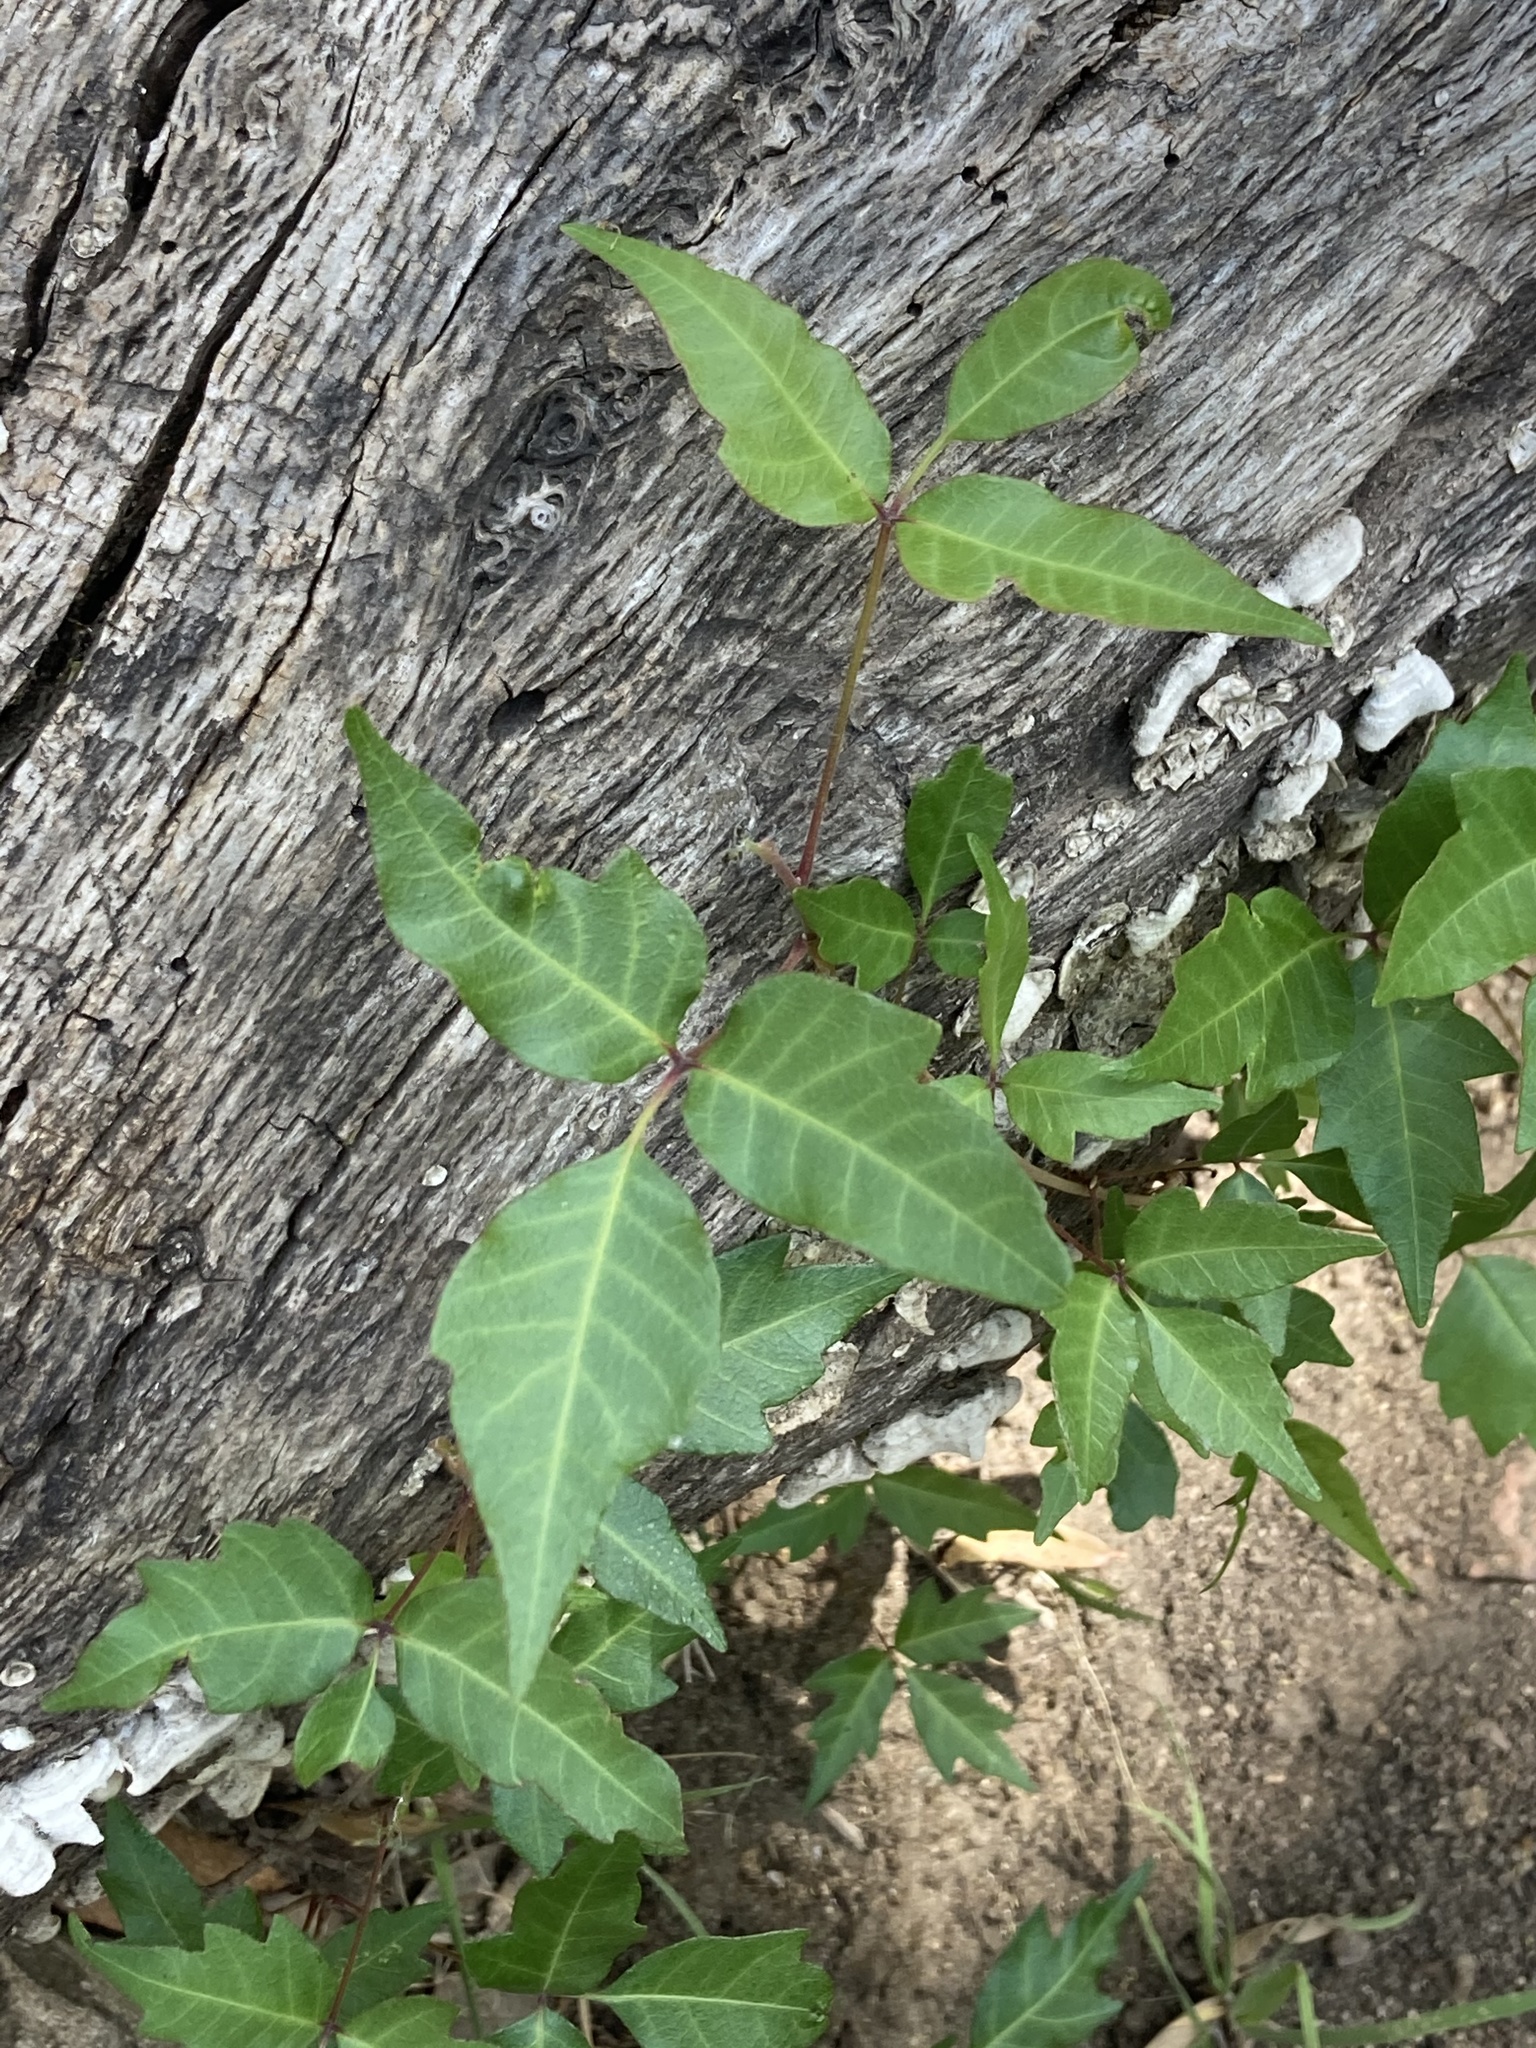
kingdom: Plantae
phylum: Tracheophyta
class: Magnoliopsida
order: Sapindales
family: Anacardiaceae
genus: Toxicodendron
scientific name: Toxicodendron radicans
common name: Poison ivy
